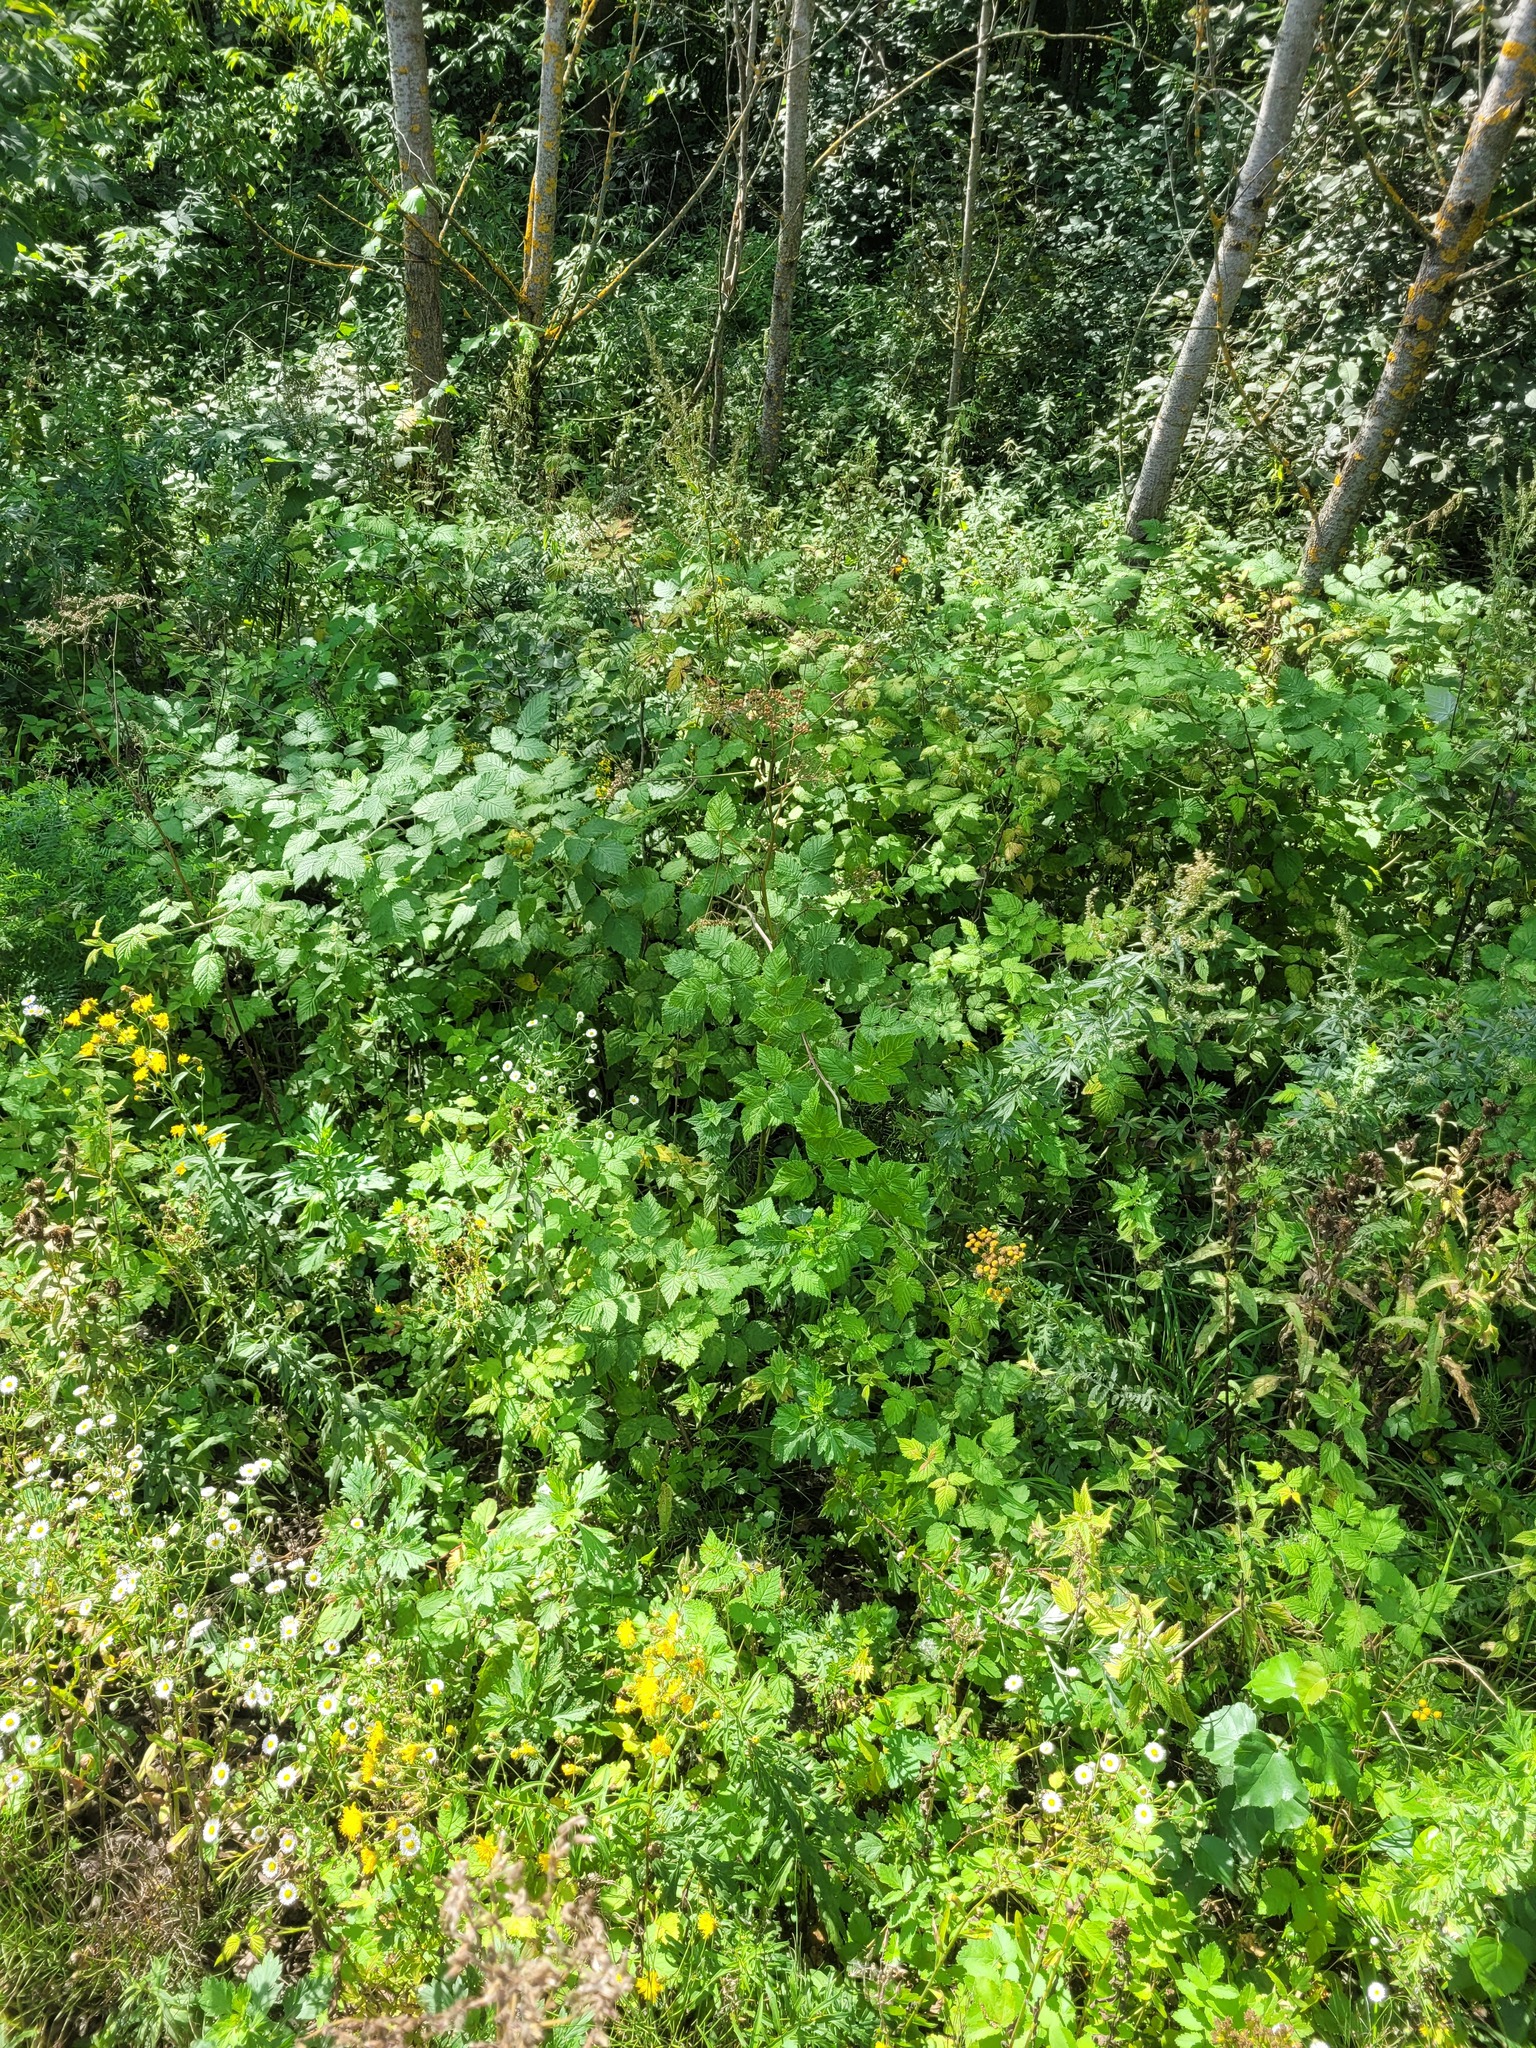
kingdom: Plantae
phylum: Tracheophyta
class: Magnoliopsida
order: Rosales
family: Rosaceae
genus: Rubus
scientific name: Rubus idaeus
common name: Raspberry
